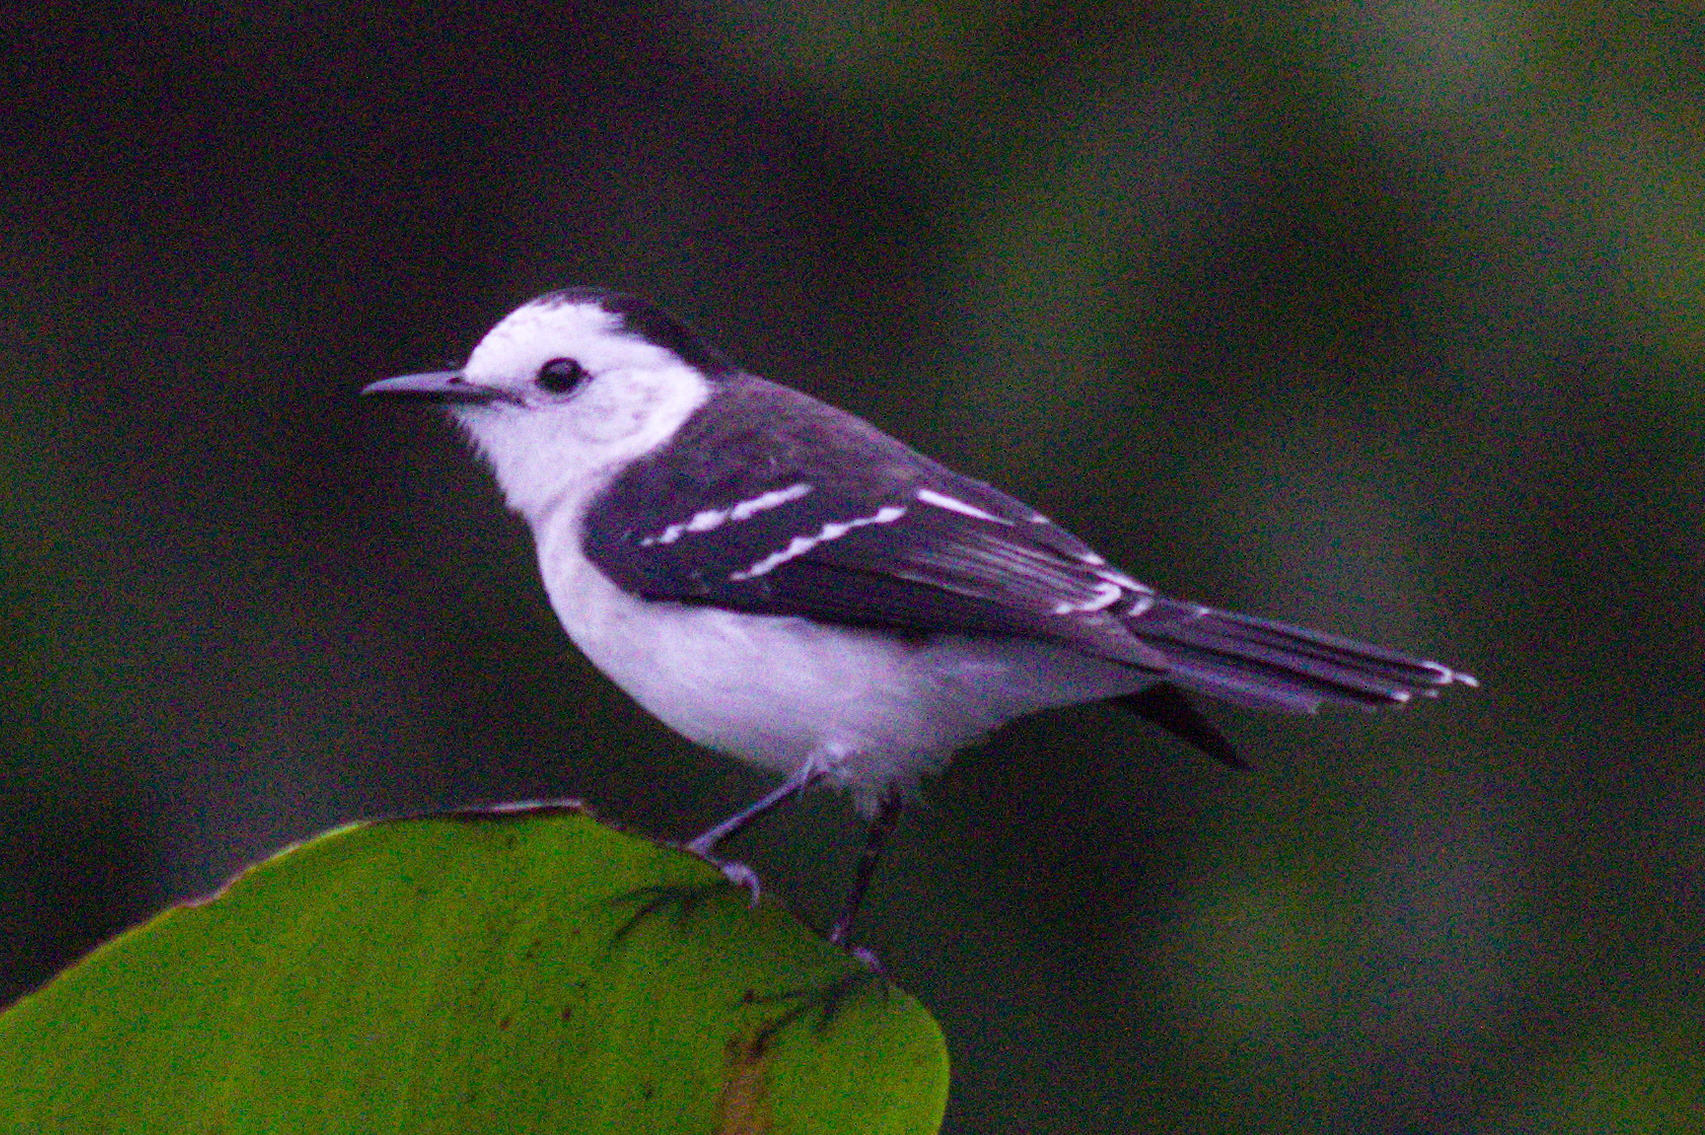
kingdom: Animalia
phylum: Chordata
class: Aves
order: Passeriformes
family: Tyrannidae
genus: Fluvicola
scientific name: Fluvicola pica
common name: Pied water-tyrant
